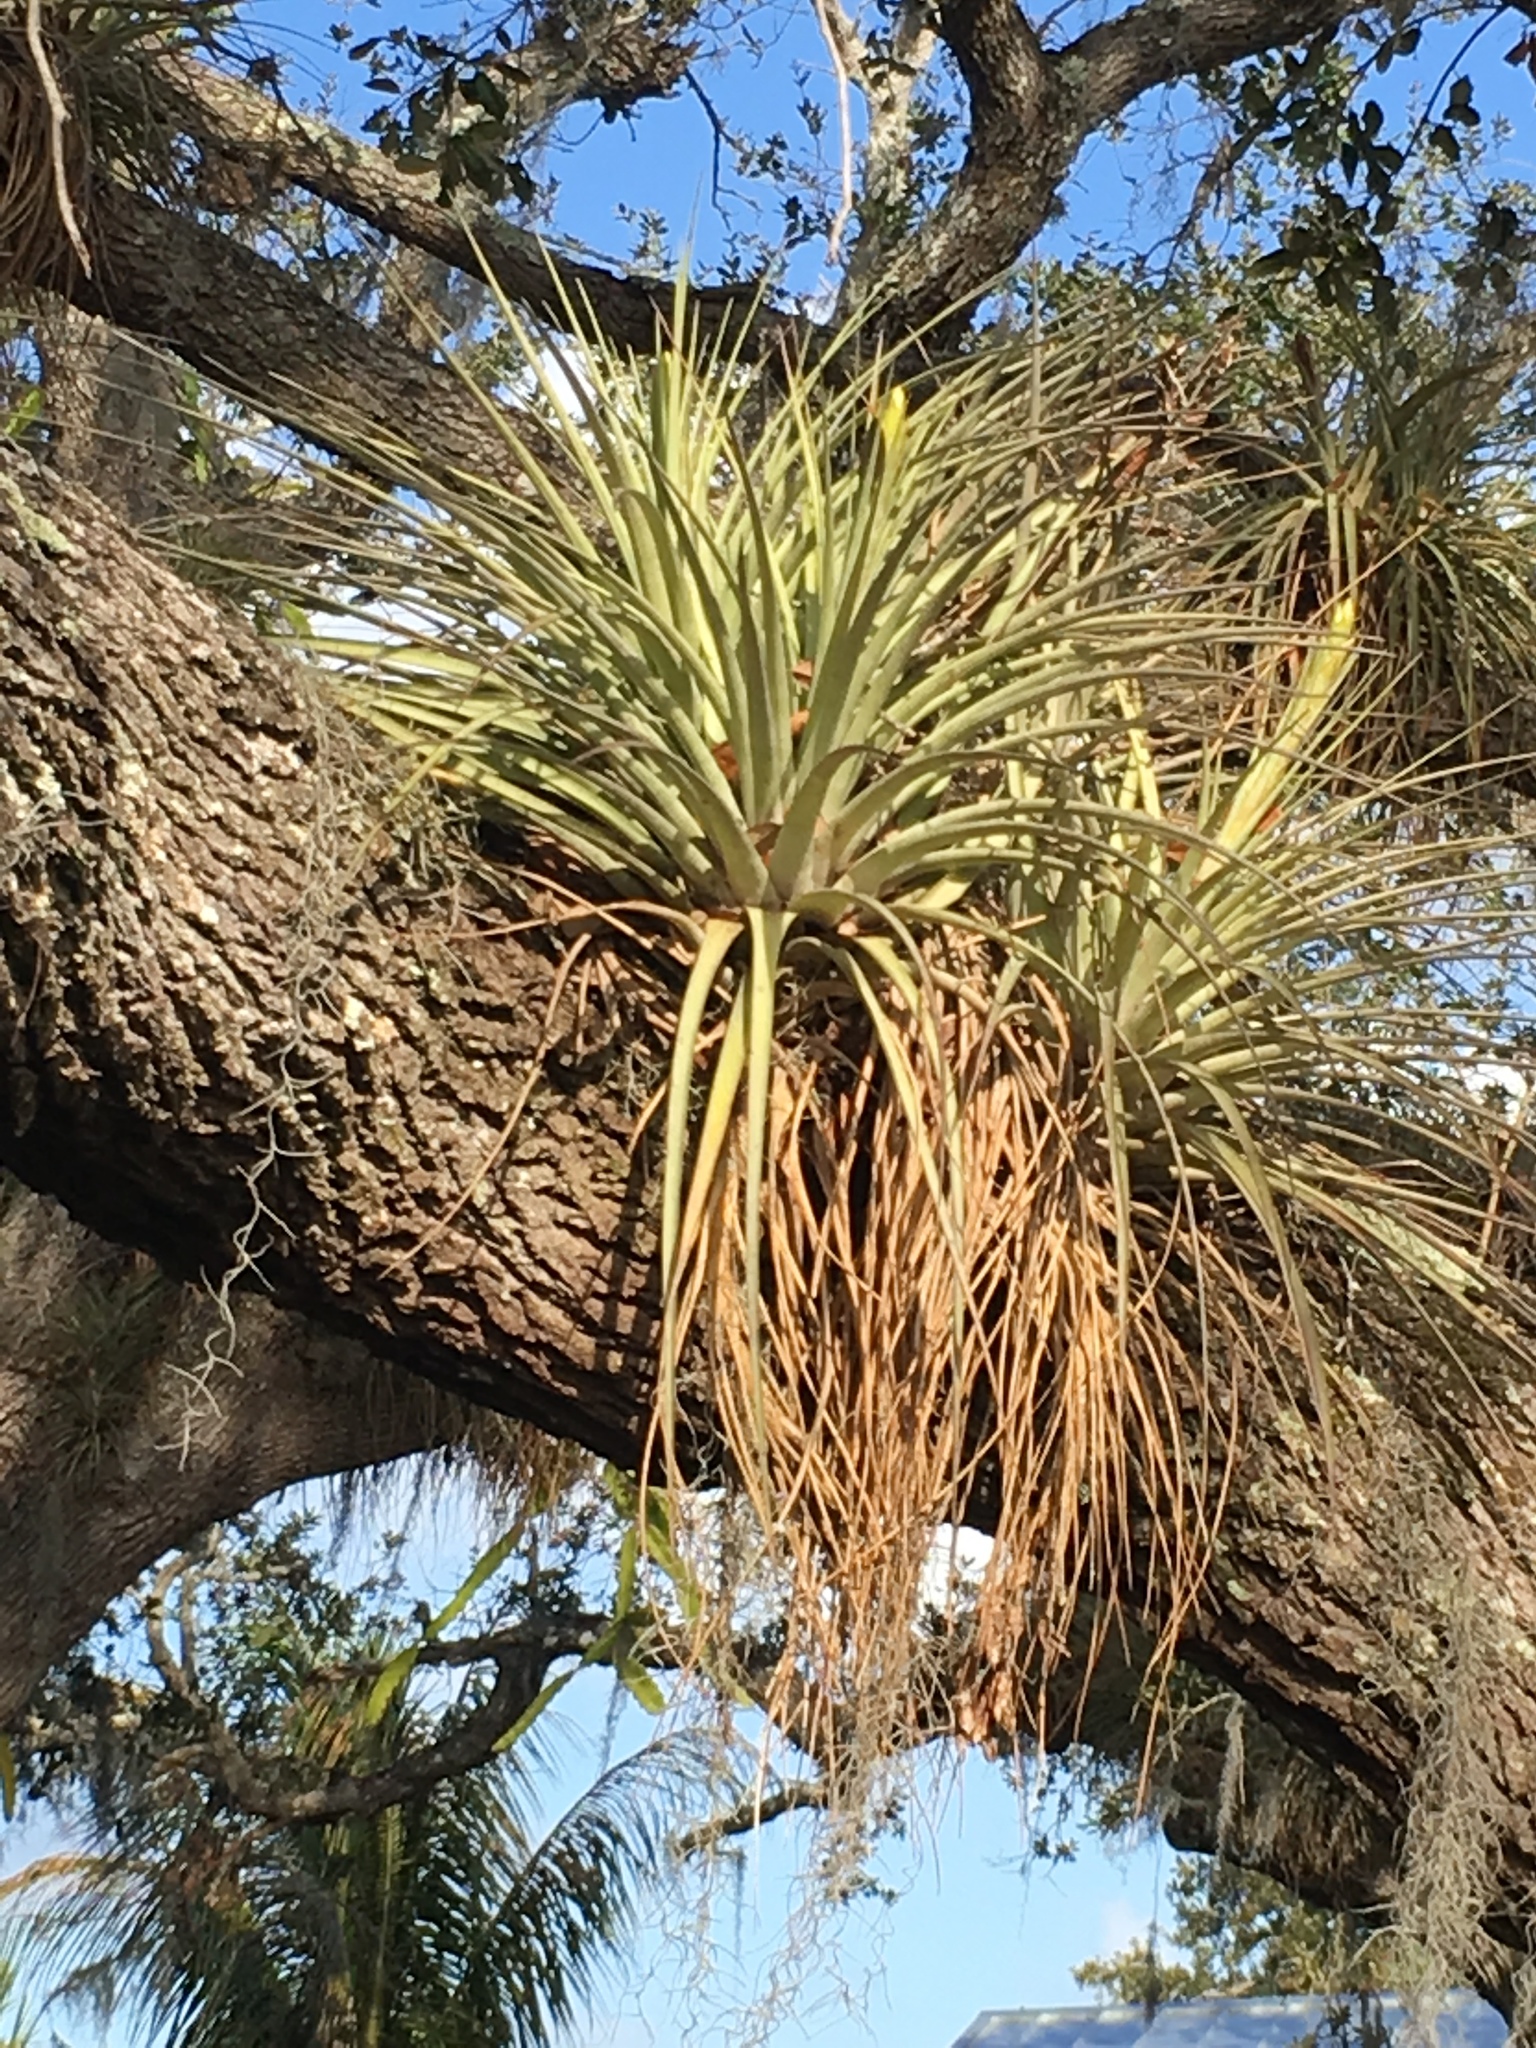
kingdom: Plantae
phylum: Tracheophyta
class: Liliopsida
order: Poales
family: Bromeliaceae
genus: Tillandsia
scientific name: Tillandsia fasciculata
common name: Giant airplant
